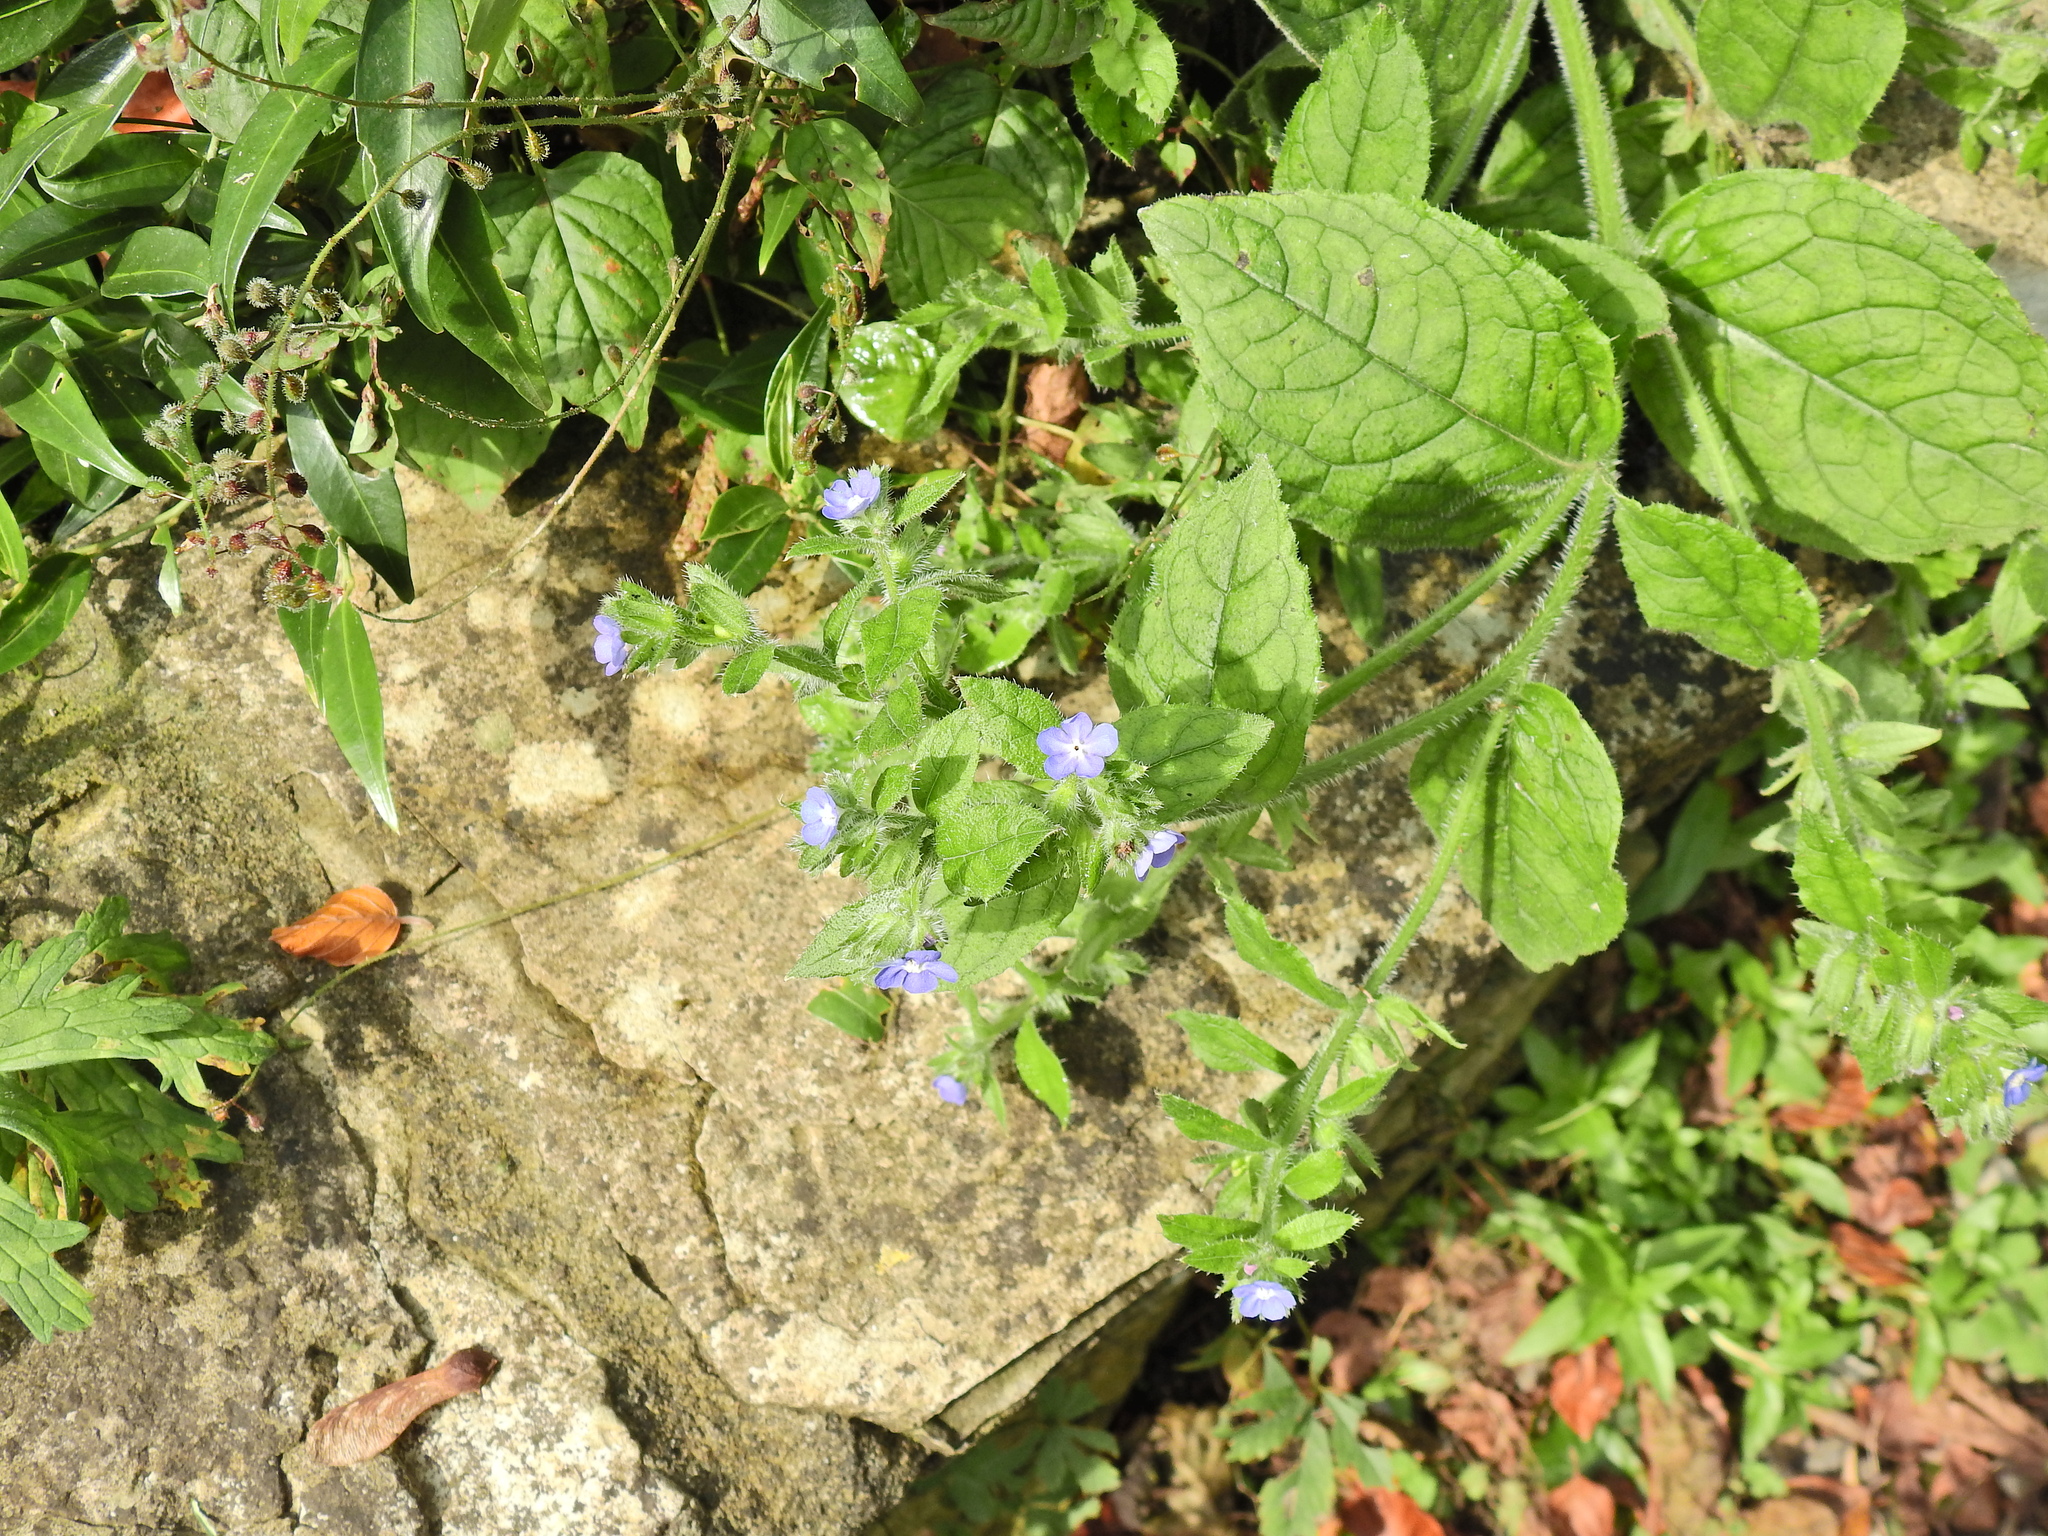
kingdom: Plantae
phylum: Tracheophyta
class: Magnoliopsida
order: Boraginales
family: Boraginaceae
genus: Pentaglottis
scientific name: Pentaglottis sempervirens
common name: Green alkanet
